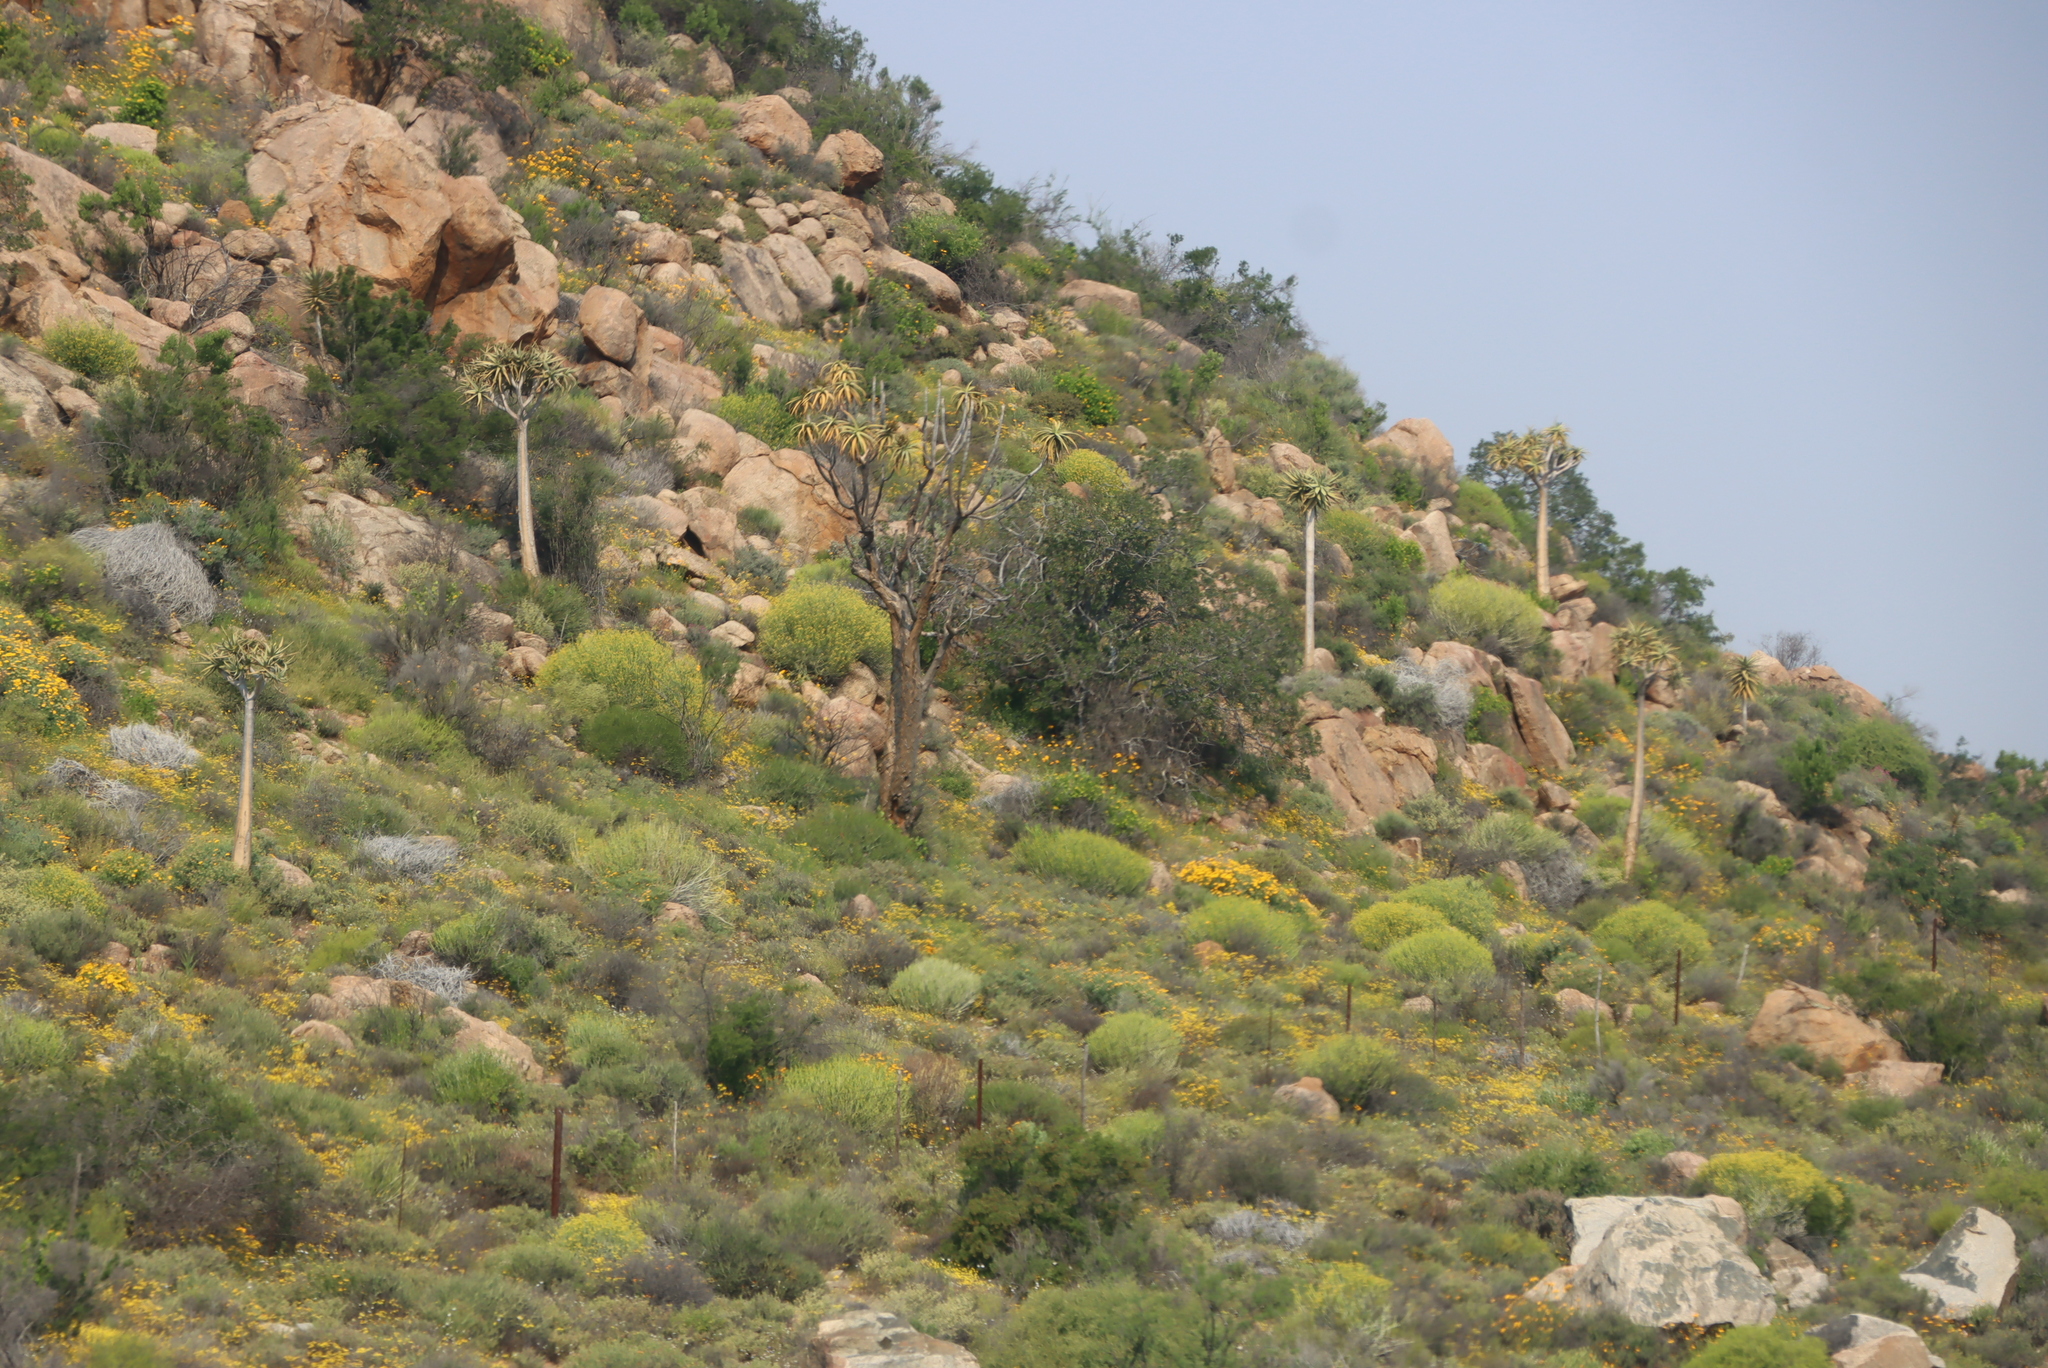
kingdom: Plantae
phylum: Tracheophyta
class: Liliopsida
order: Asparagales
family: Asphodelaceae
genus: Aloidendron
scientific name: Aloidendron dichotomum
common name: Quiver tree
